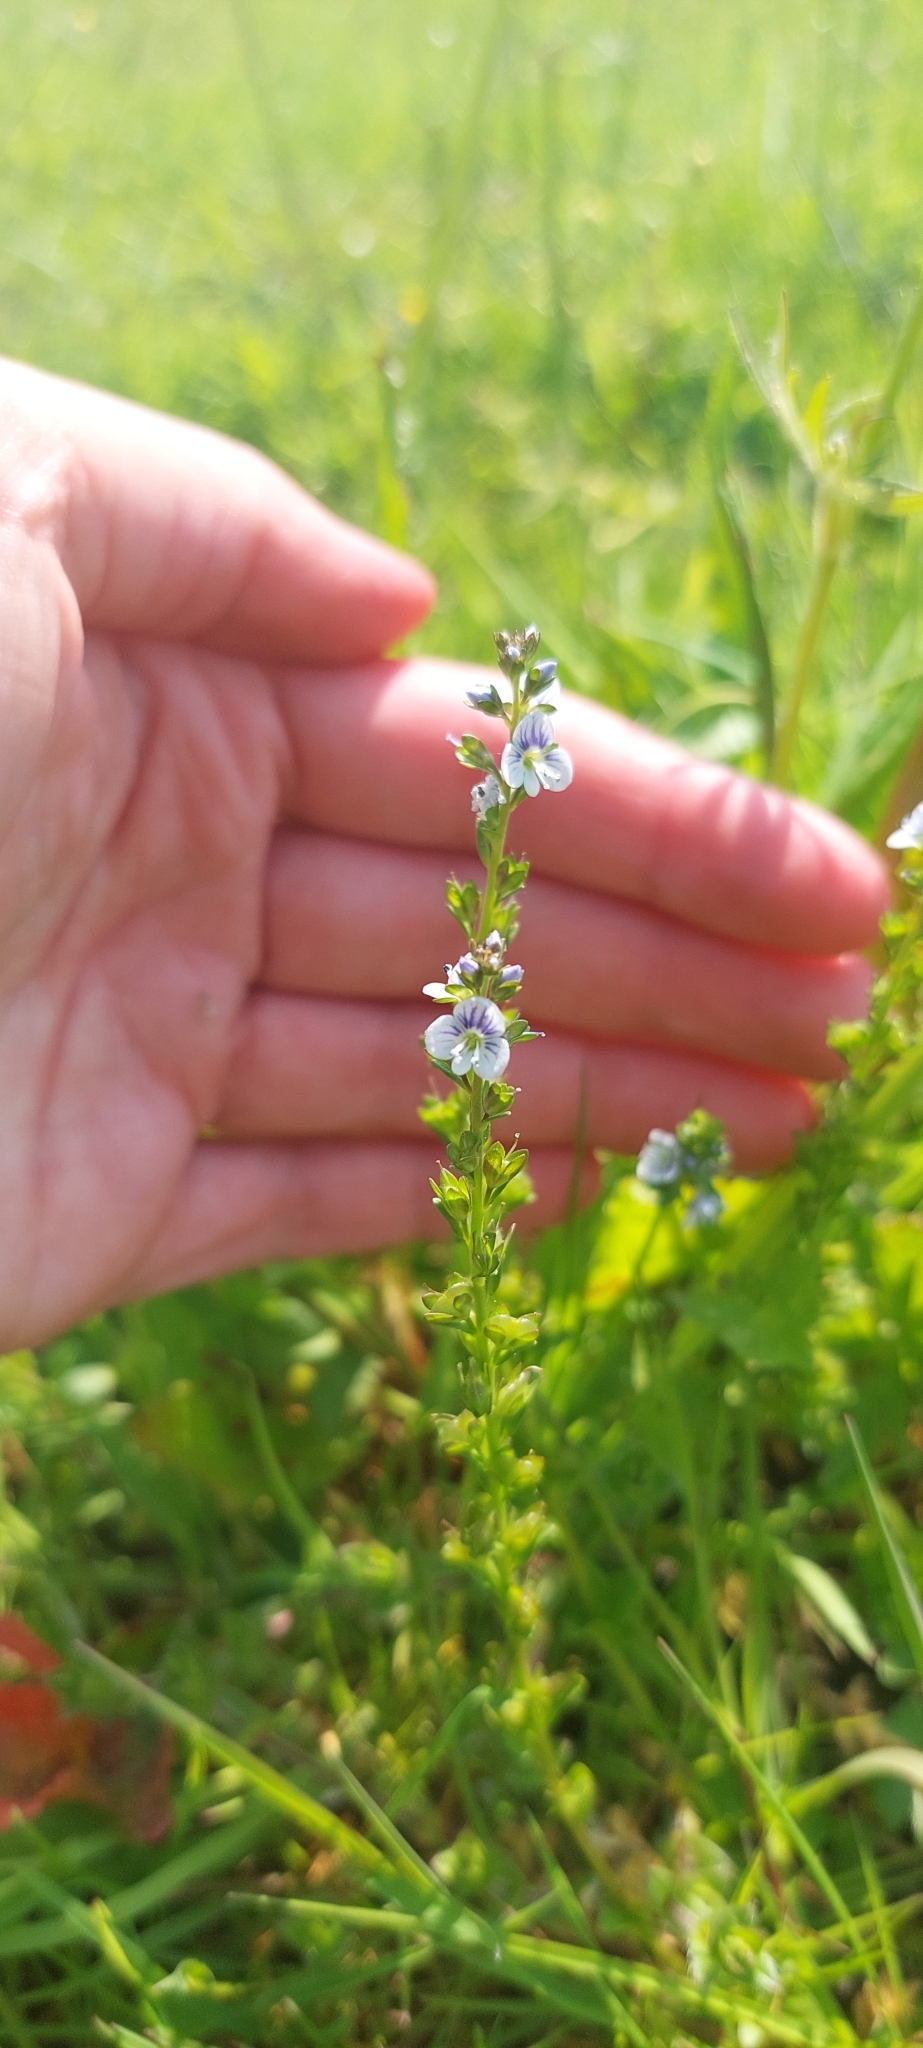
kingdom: Plantae
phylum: Tracheophyta
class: Magnoliopsida
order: Lamiales
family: Plantaginaceae
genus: Veronica
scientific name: Veronica serpyllifolia
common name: Thyme-leaved speedwell
